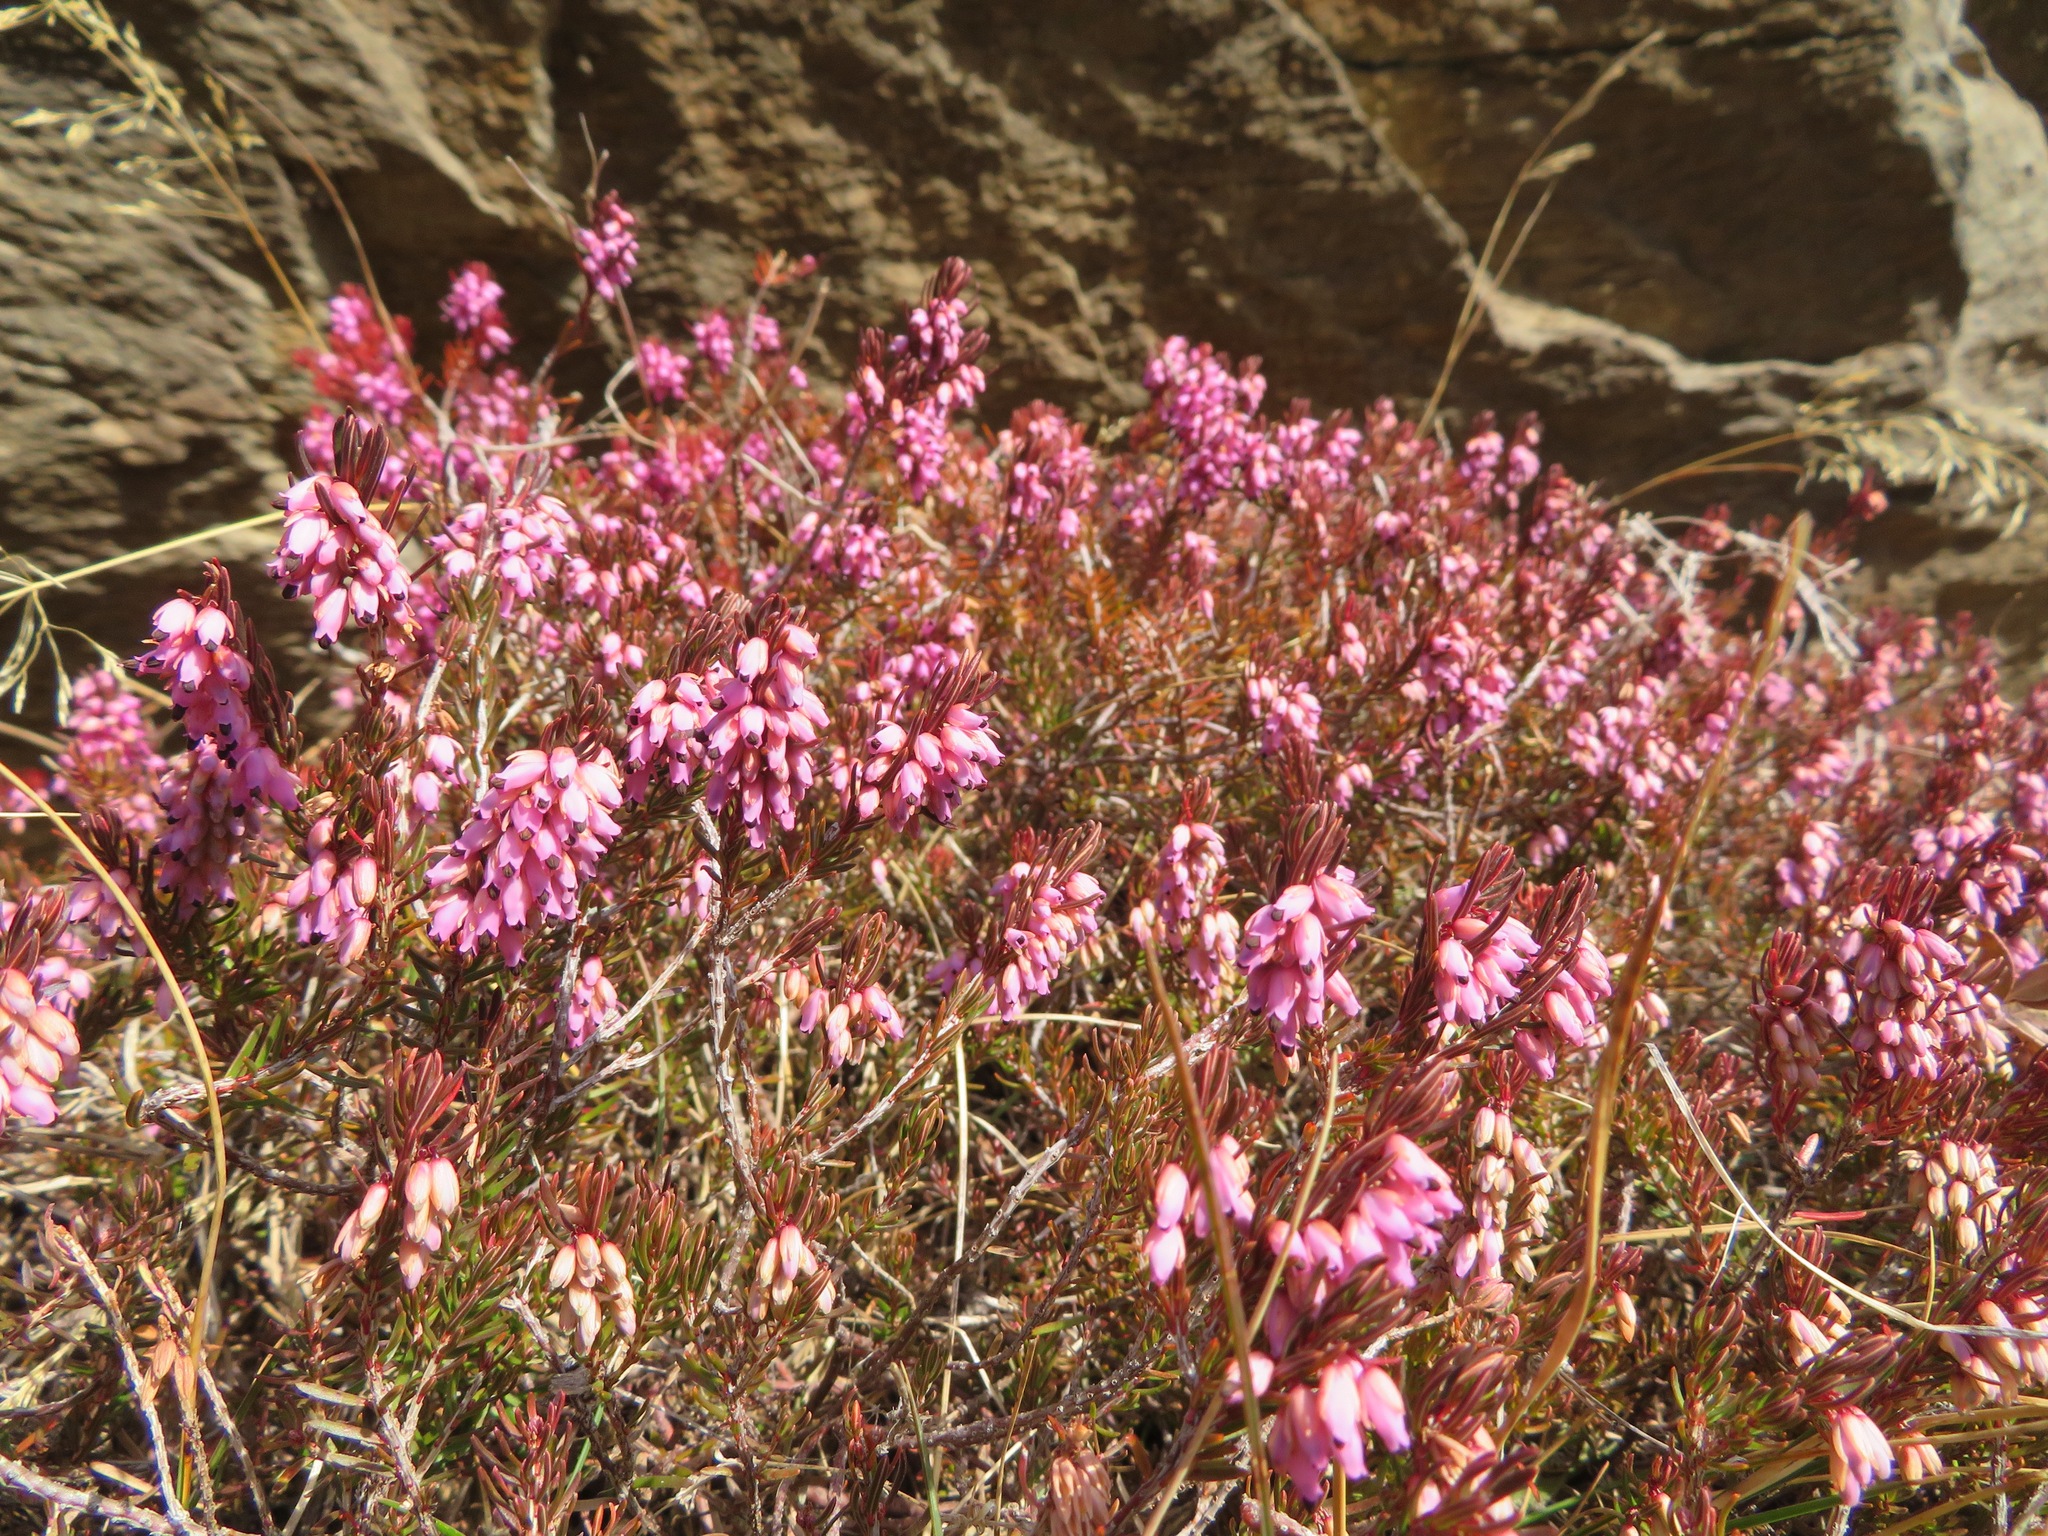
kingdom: Plantae
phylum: Tracheophyta
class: Magnoliopsida
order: Ericales
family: Ericaceae
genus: Erica
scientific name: Erica carnea
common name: Winter heath
